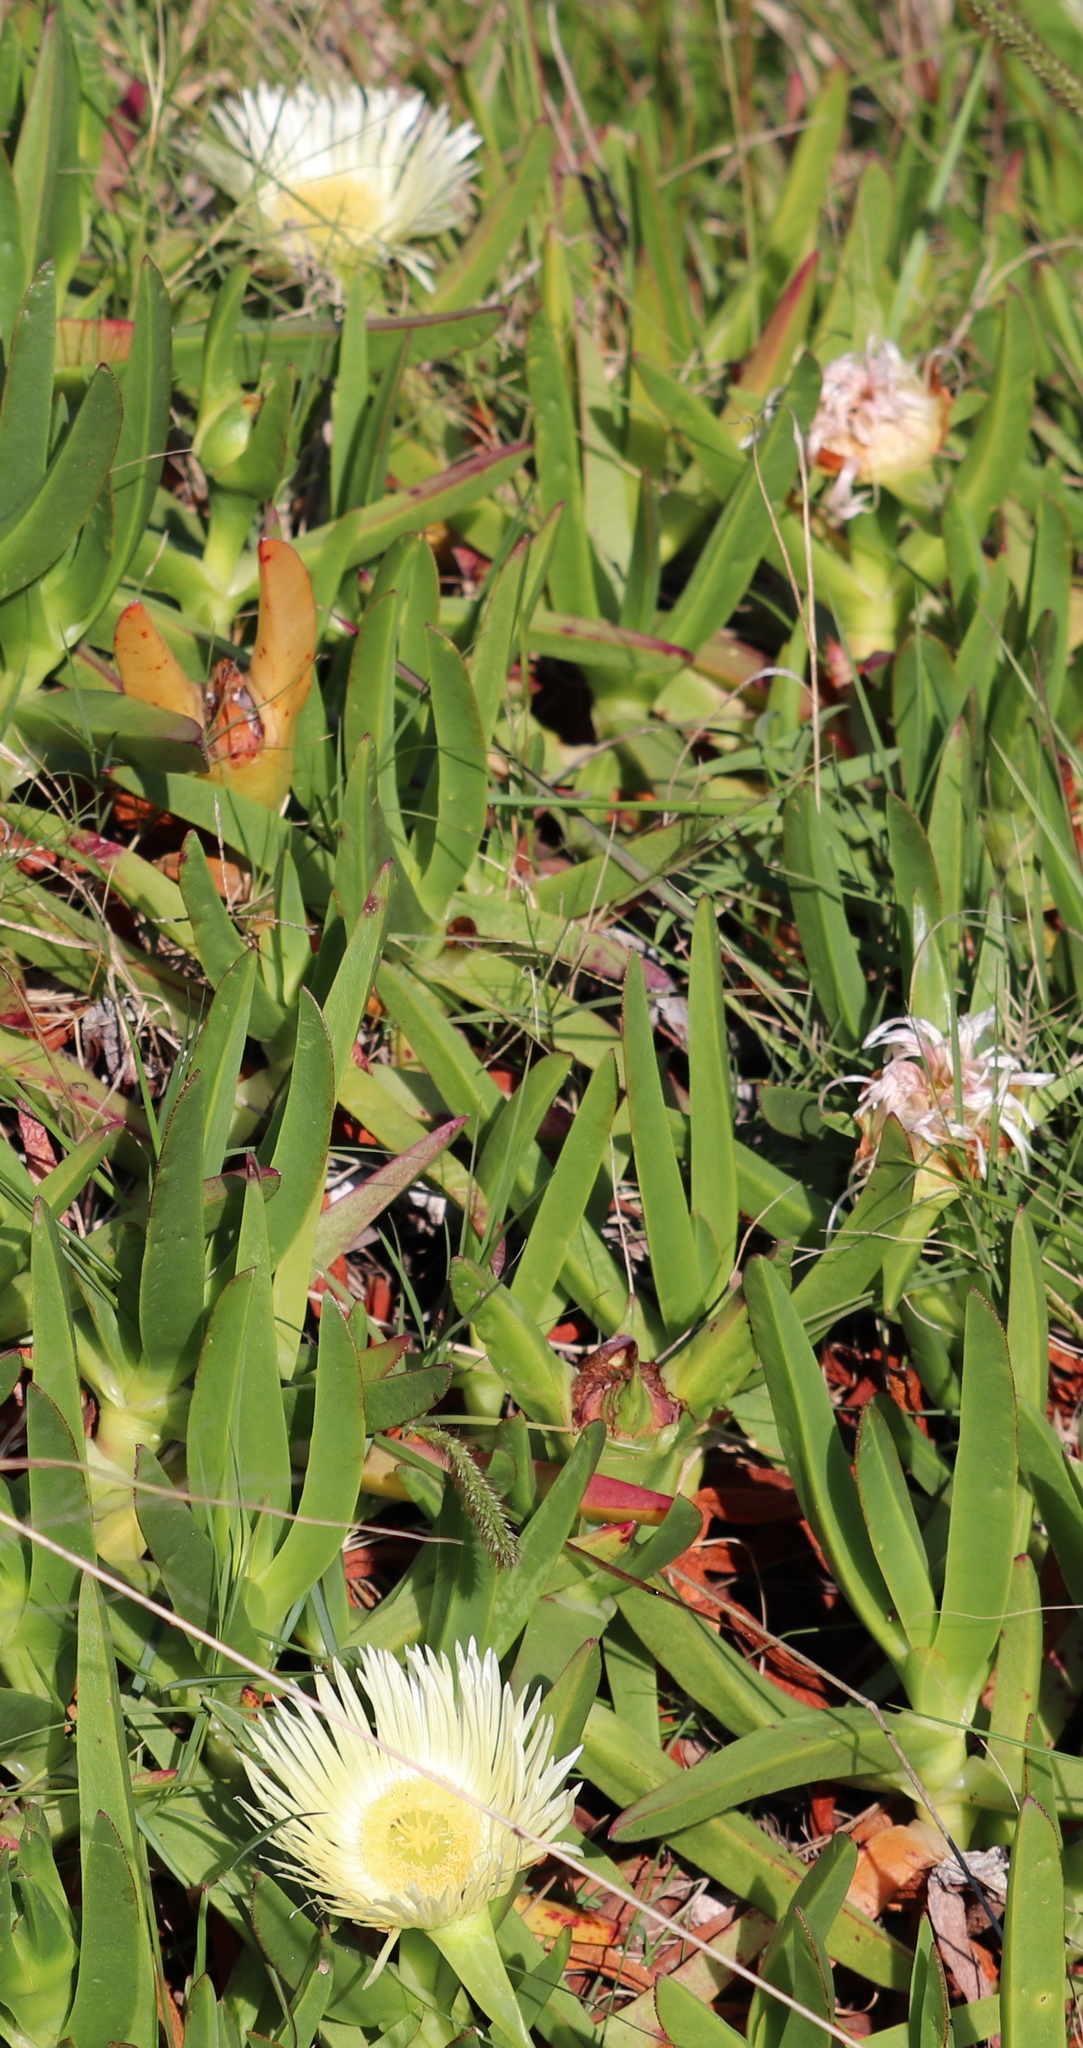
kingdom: Plantae
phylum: Tracheophyta
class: Magnoliopsida
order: Caryophyllales
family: Aizoaceae
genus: Carpobrotus
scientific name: Carpobrotus edulis
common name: Hottentot-fig
